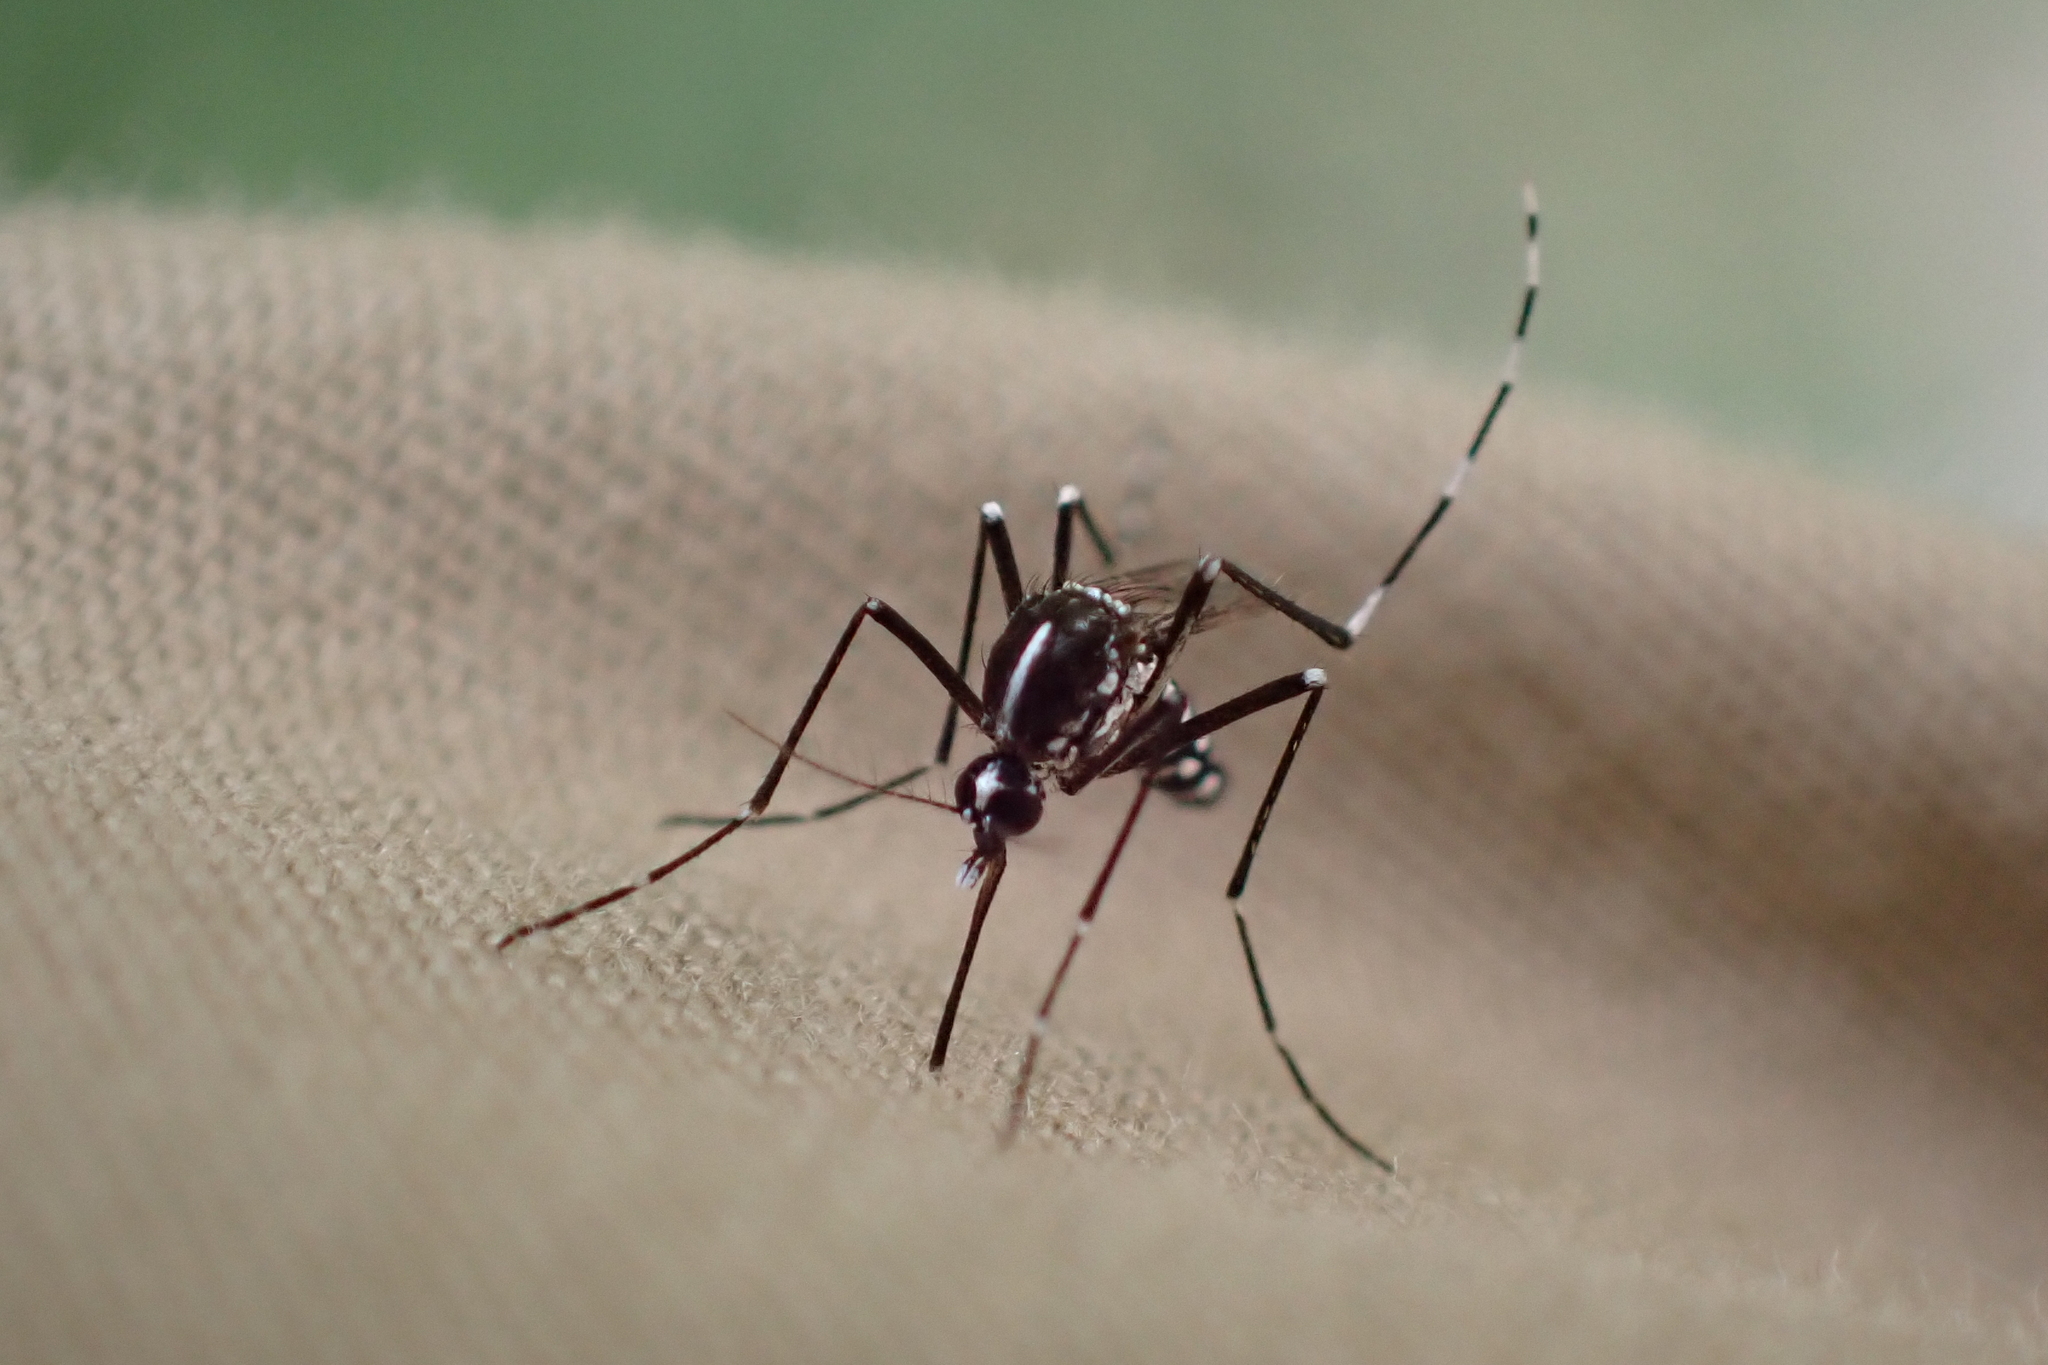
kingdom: Animalia
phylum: Arthropoda
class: Insecta
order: Diptera
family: Culicidae
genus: Aedes
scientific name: Aedes albopictus
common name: Tiger mosquito
